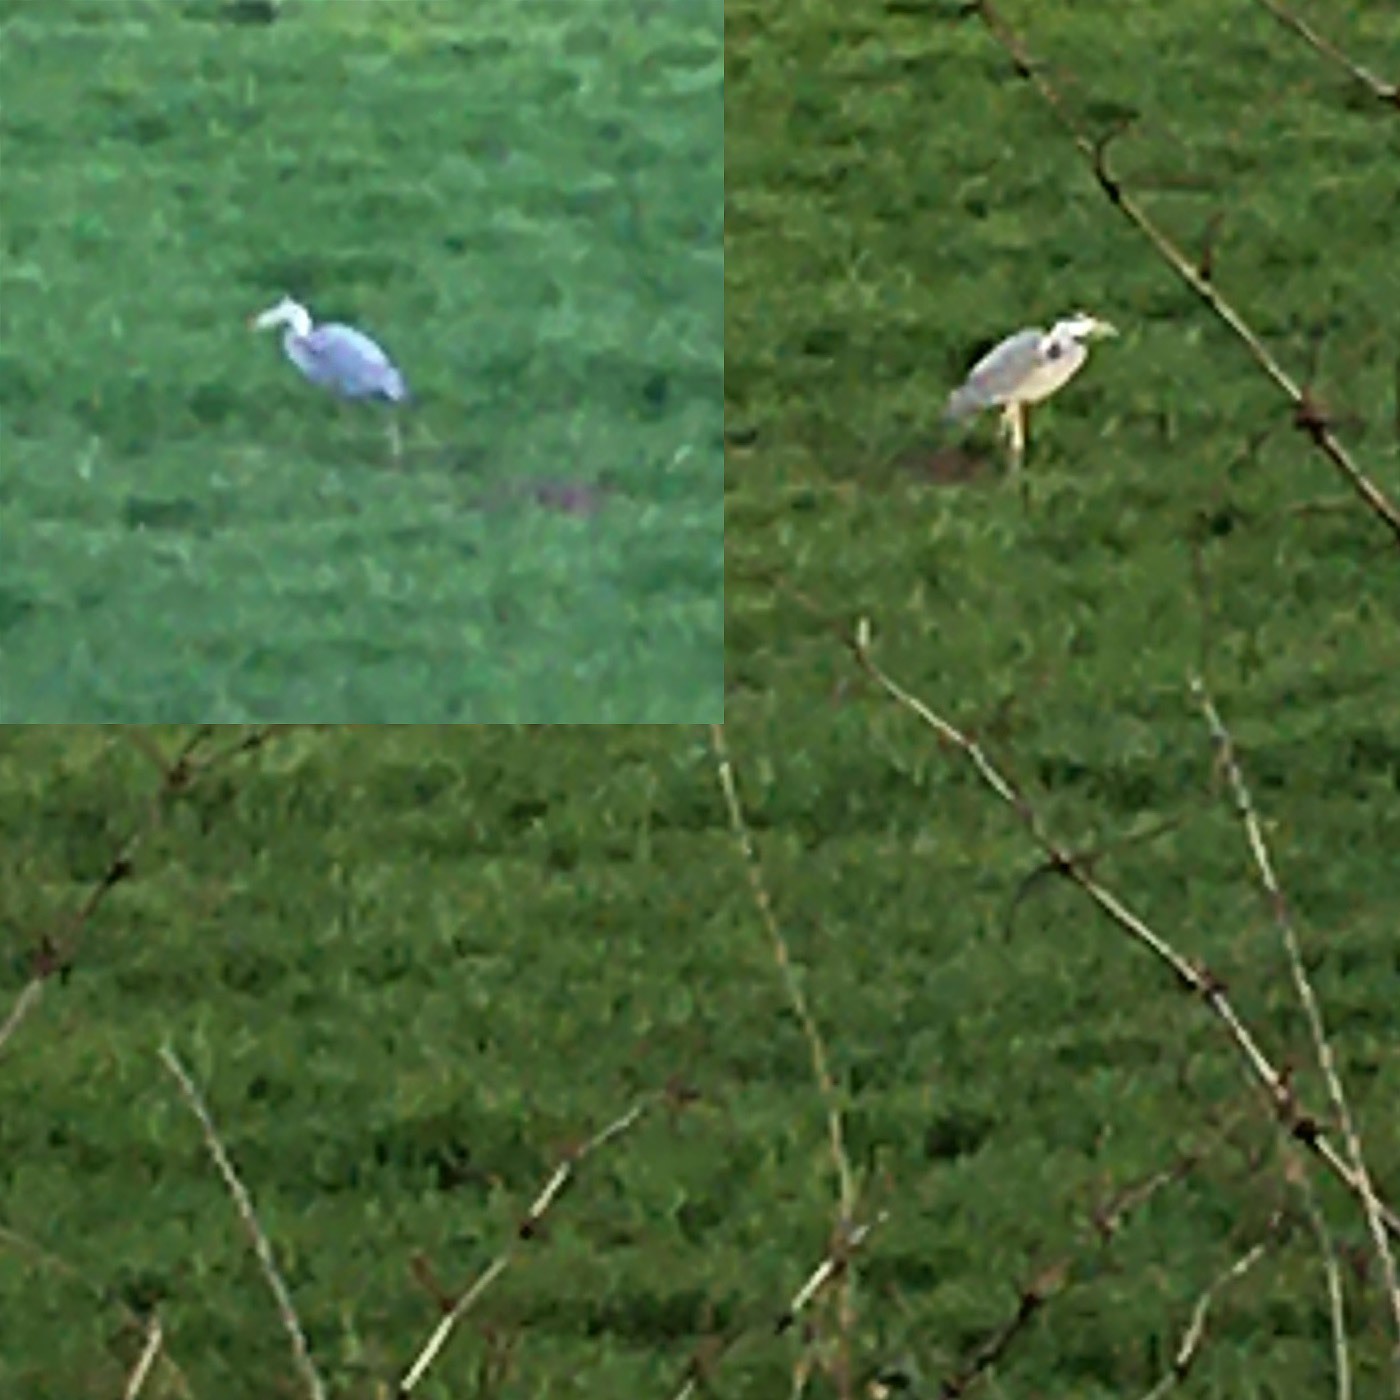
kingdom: Animalia
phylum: Chordata
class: Aves
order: Pelecaniformes
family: Ardeidae
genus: Ardea
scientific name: Ardea cinerea
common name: Grey heron
